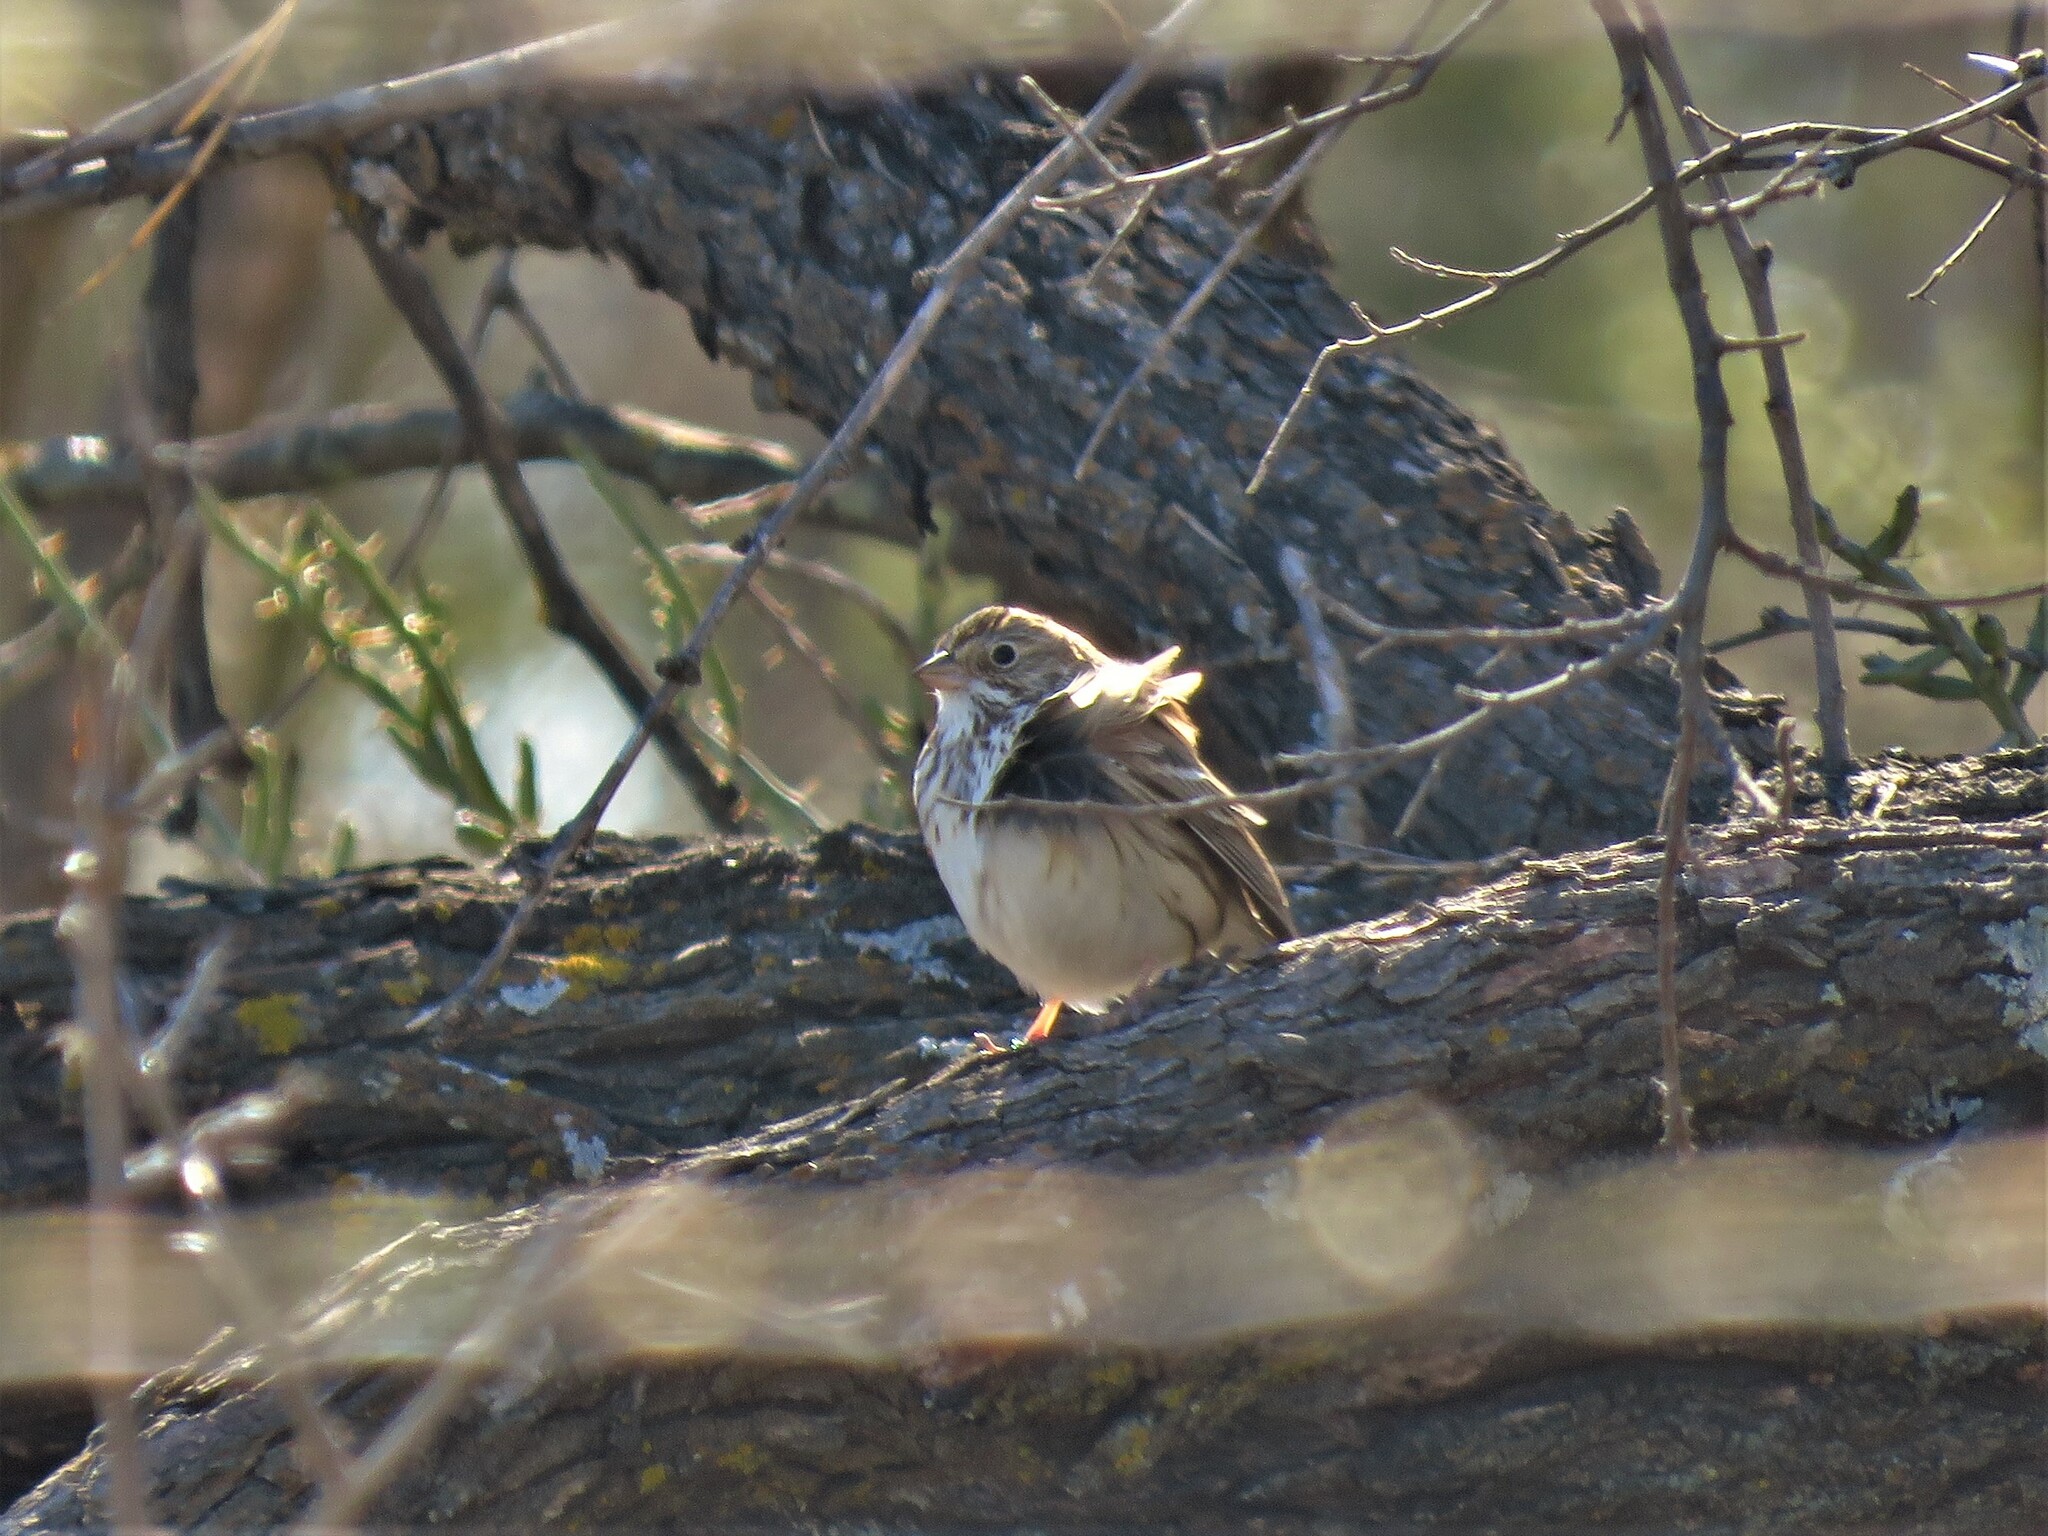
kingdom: Animalia
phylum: Chordata
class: Aves
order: Passeriformes
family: Passerellidae
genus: Pooecetes
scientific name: Pooecetes gramineus
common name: Vesper sparrow
